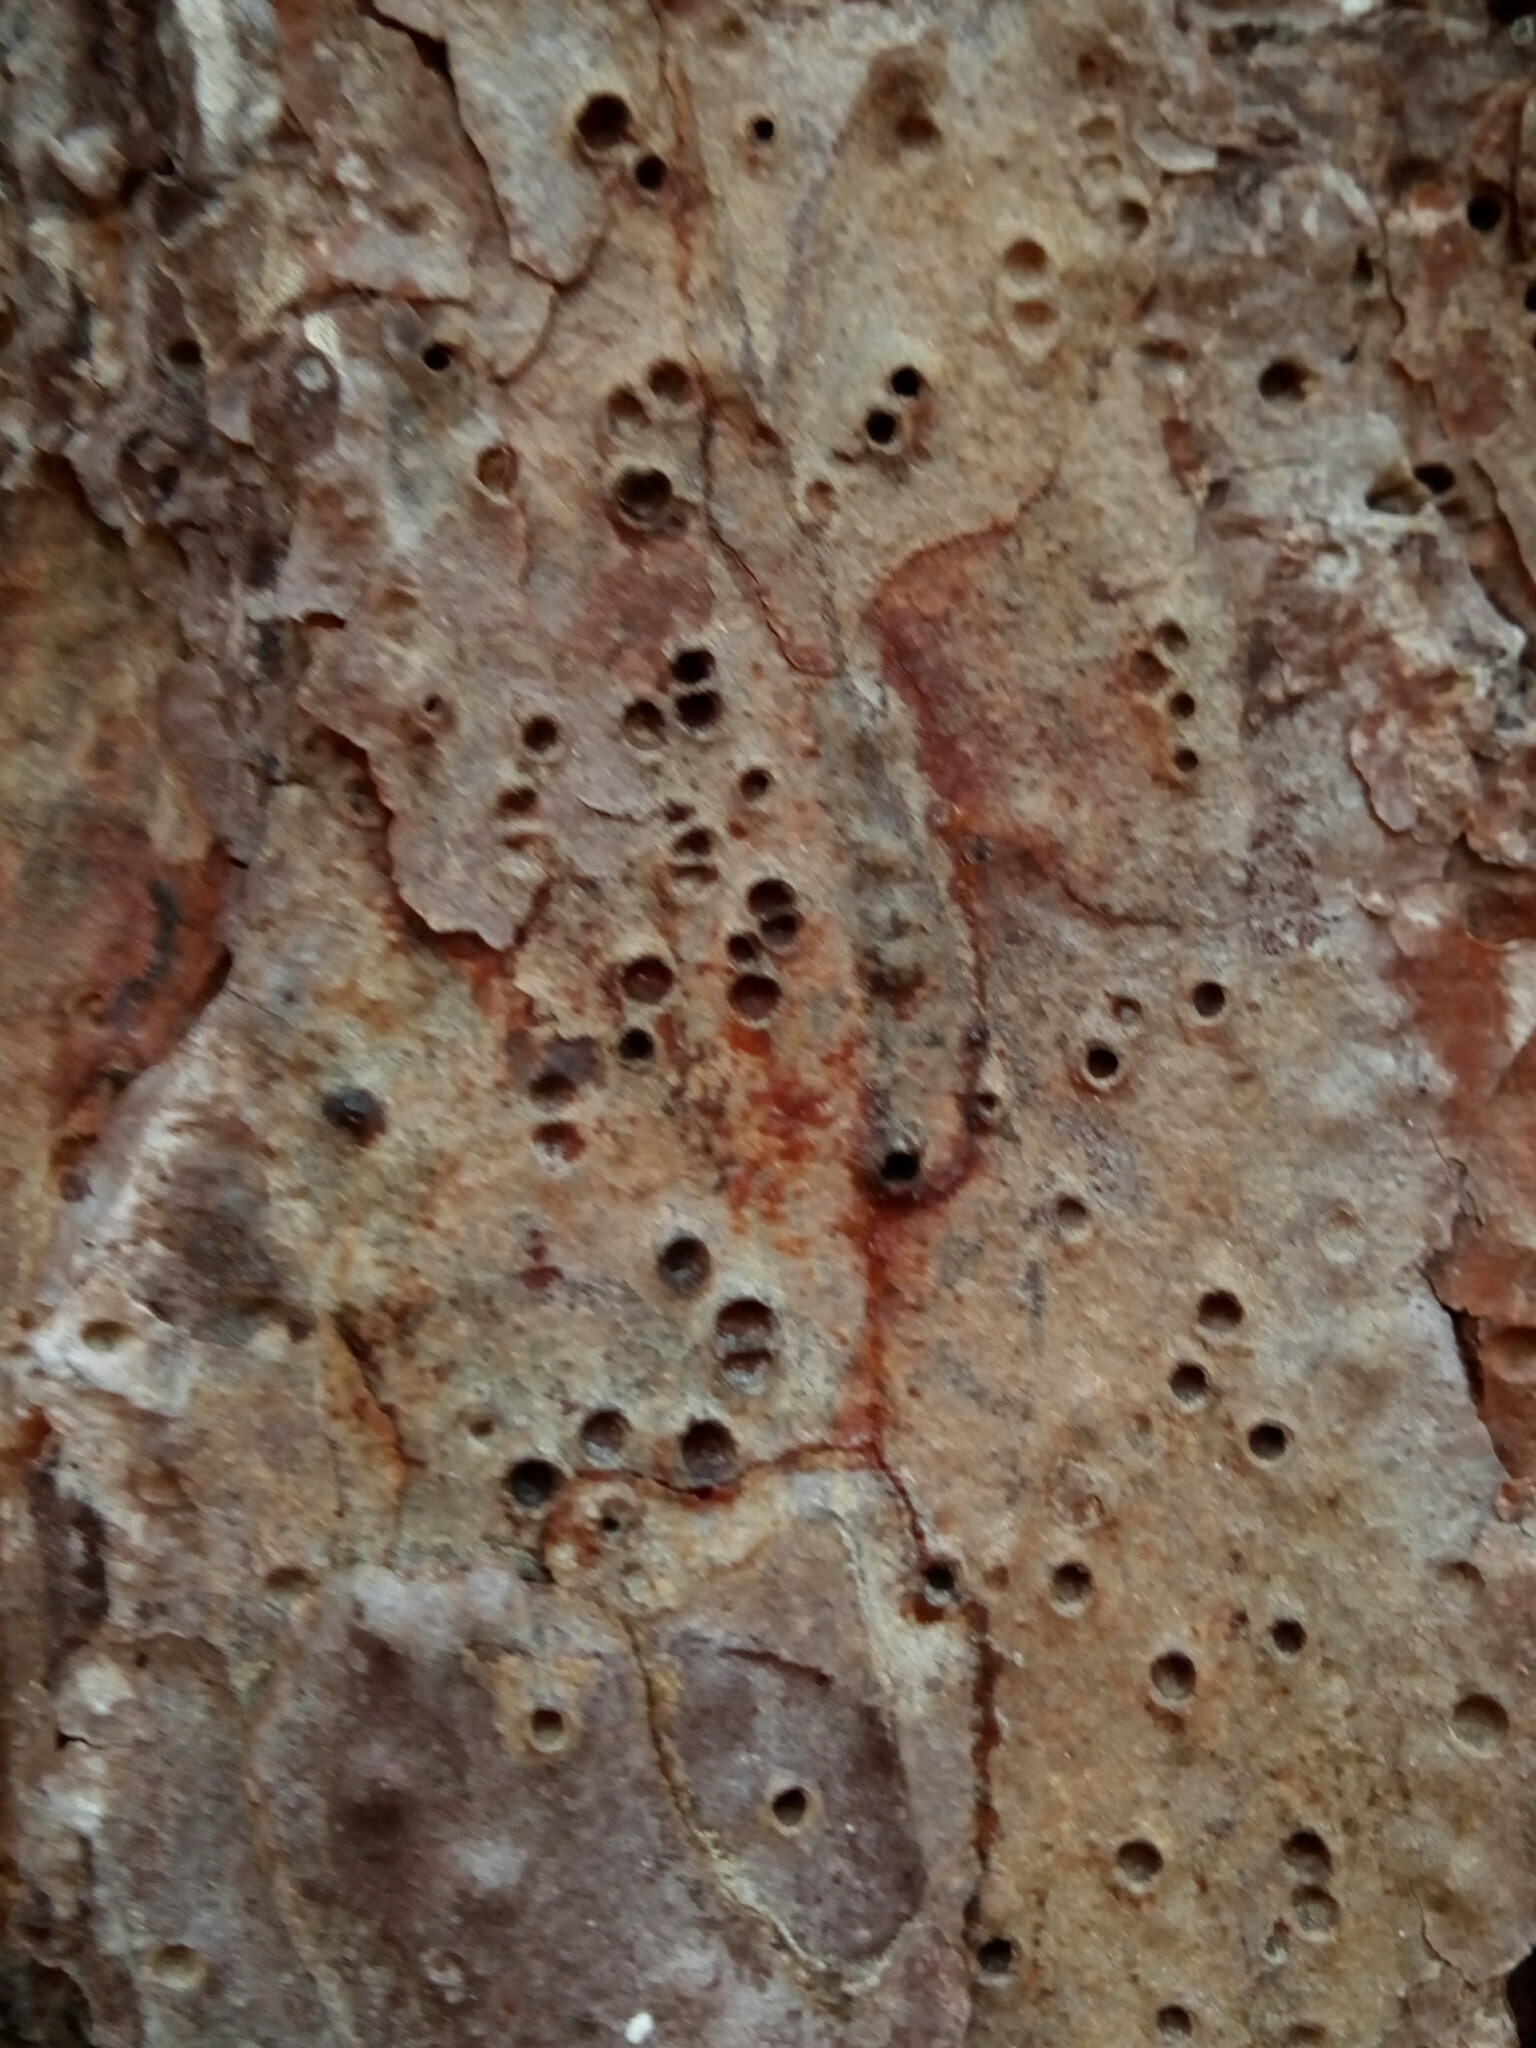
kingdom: Plantae
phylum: Tracheophyta
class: Pinopsida
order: Pinales
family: Pinaceae
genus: Pinus
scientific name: Pinus echinata
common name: Shortleaf pine
